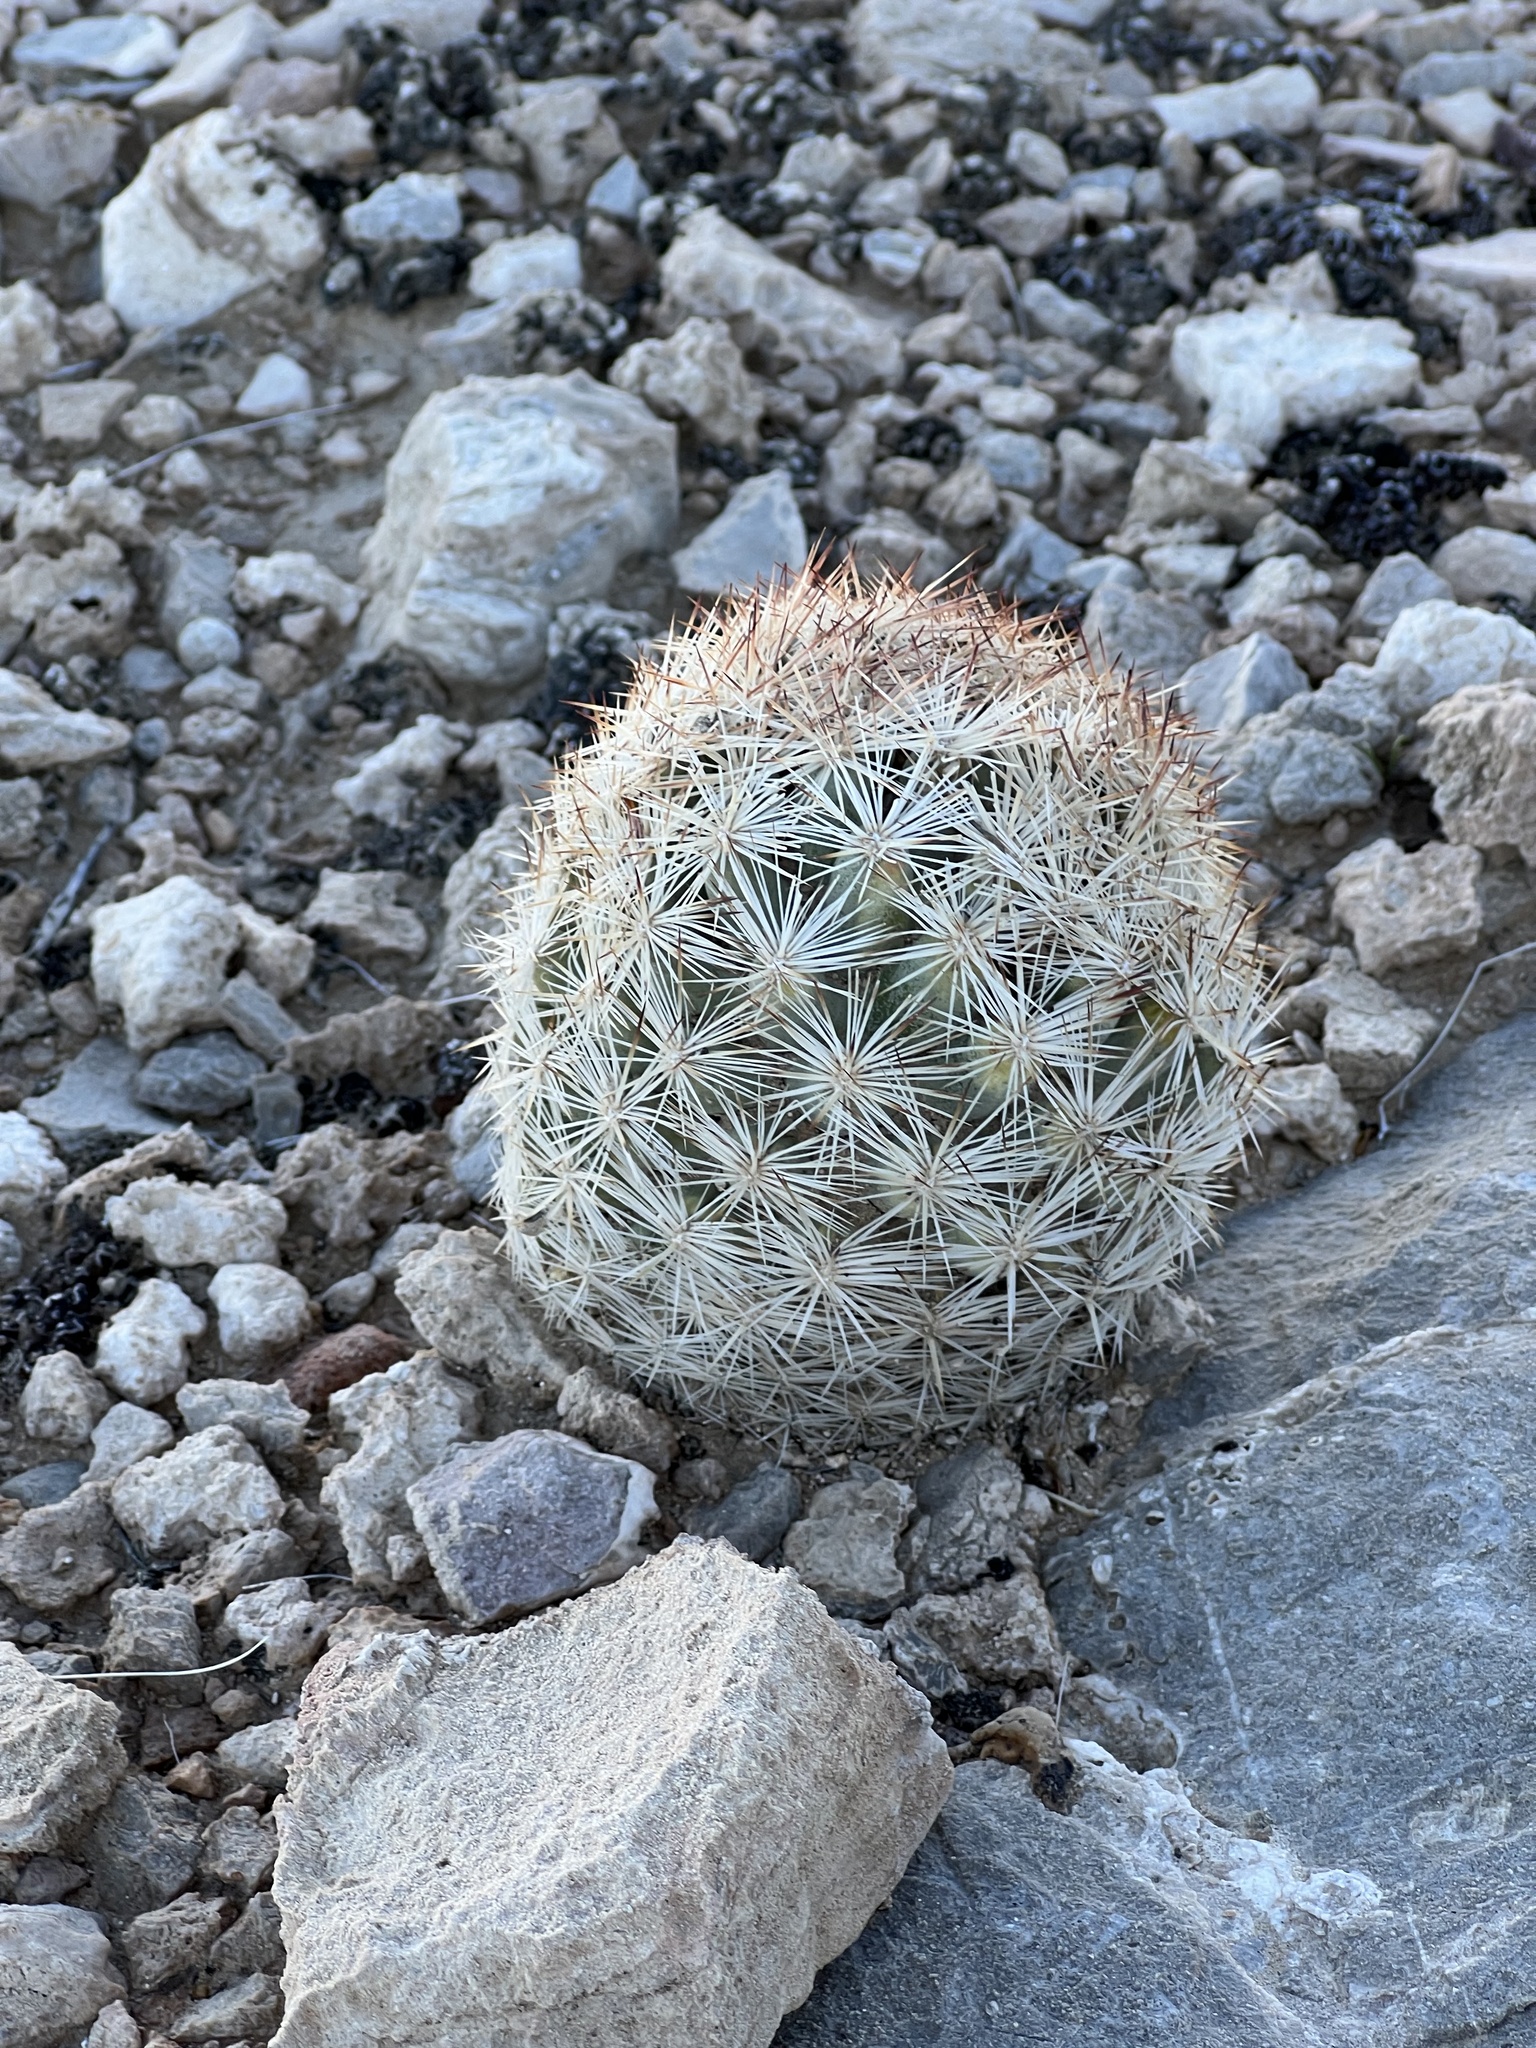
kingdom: Plantae
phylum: Tracheophyta
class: Magnoliopsida
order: Caryophyllales
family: Cactaceae
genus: Pelecyphora
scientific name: Pelecyphora dasyacantha
